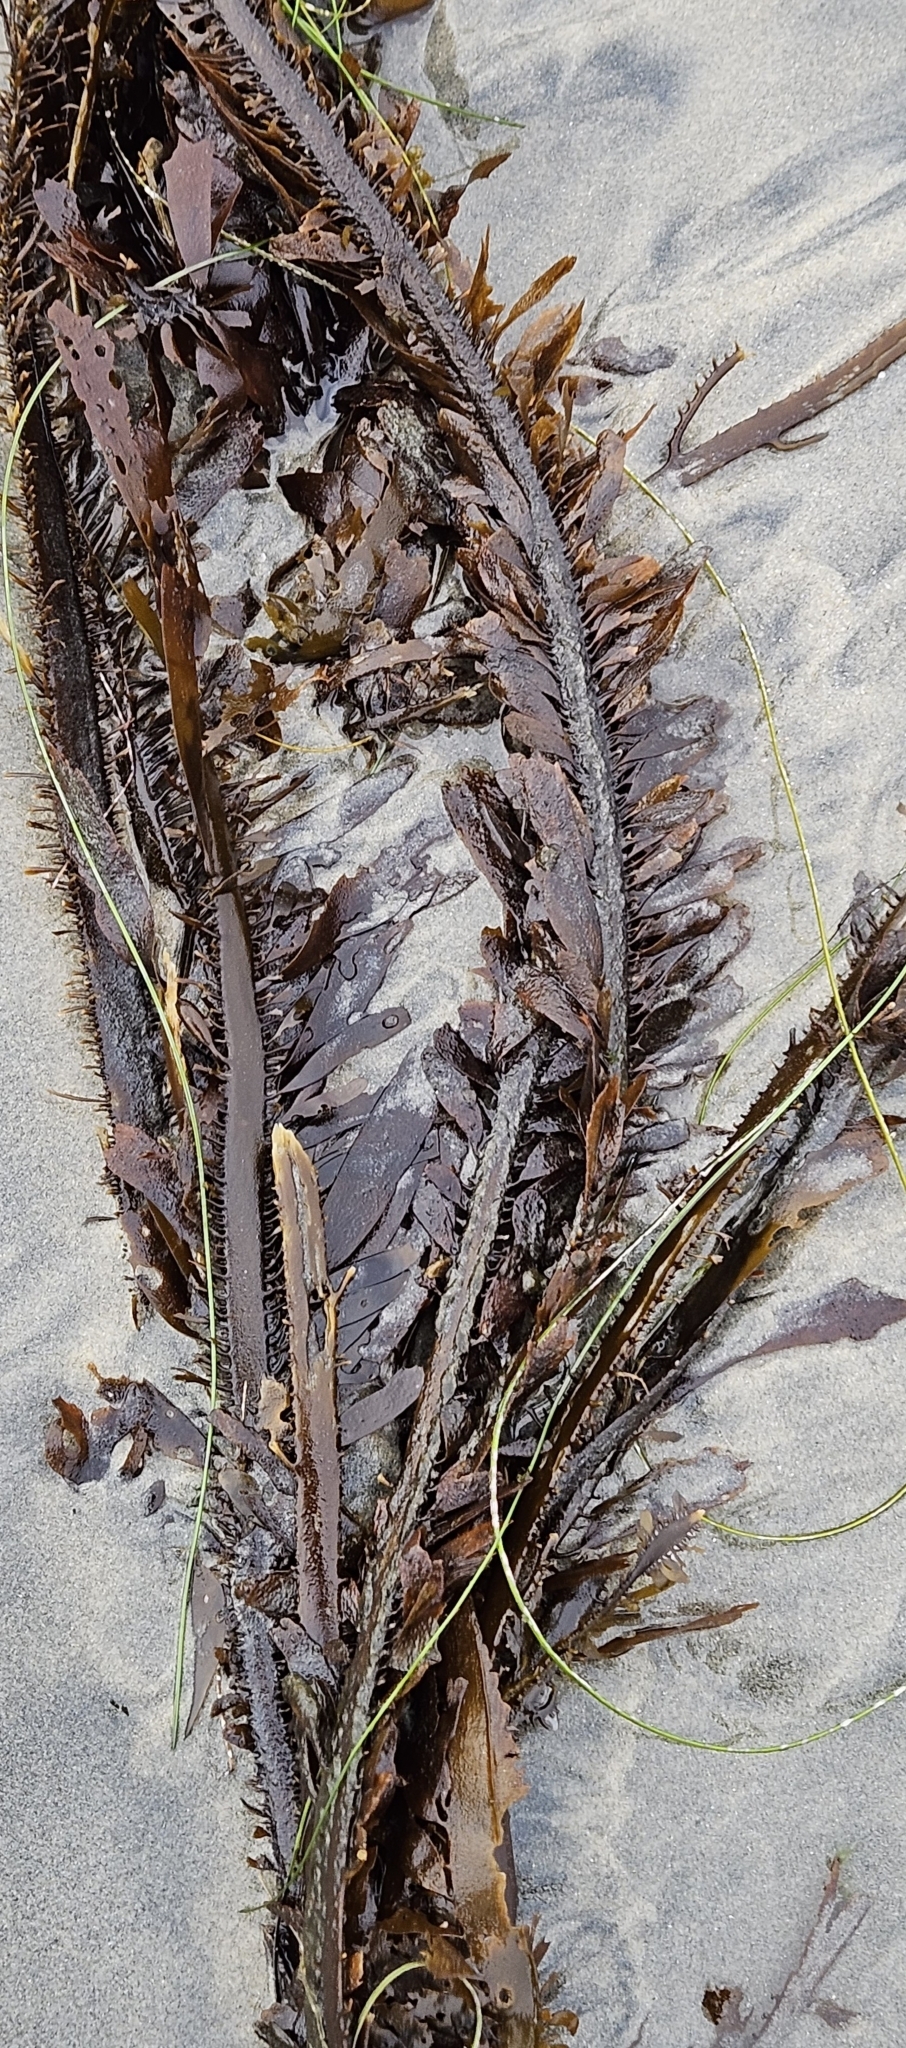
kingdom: Chromista
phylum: Ochrophyta
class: Phaeophyceae
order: Laminariales
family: Lessoniaceae
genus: Egregia
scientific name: Egregia menziesii
